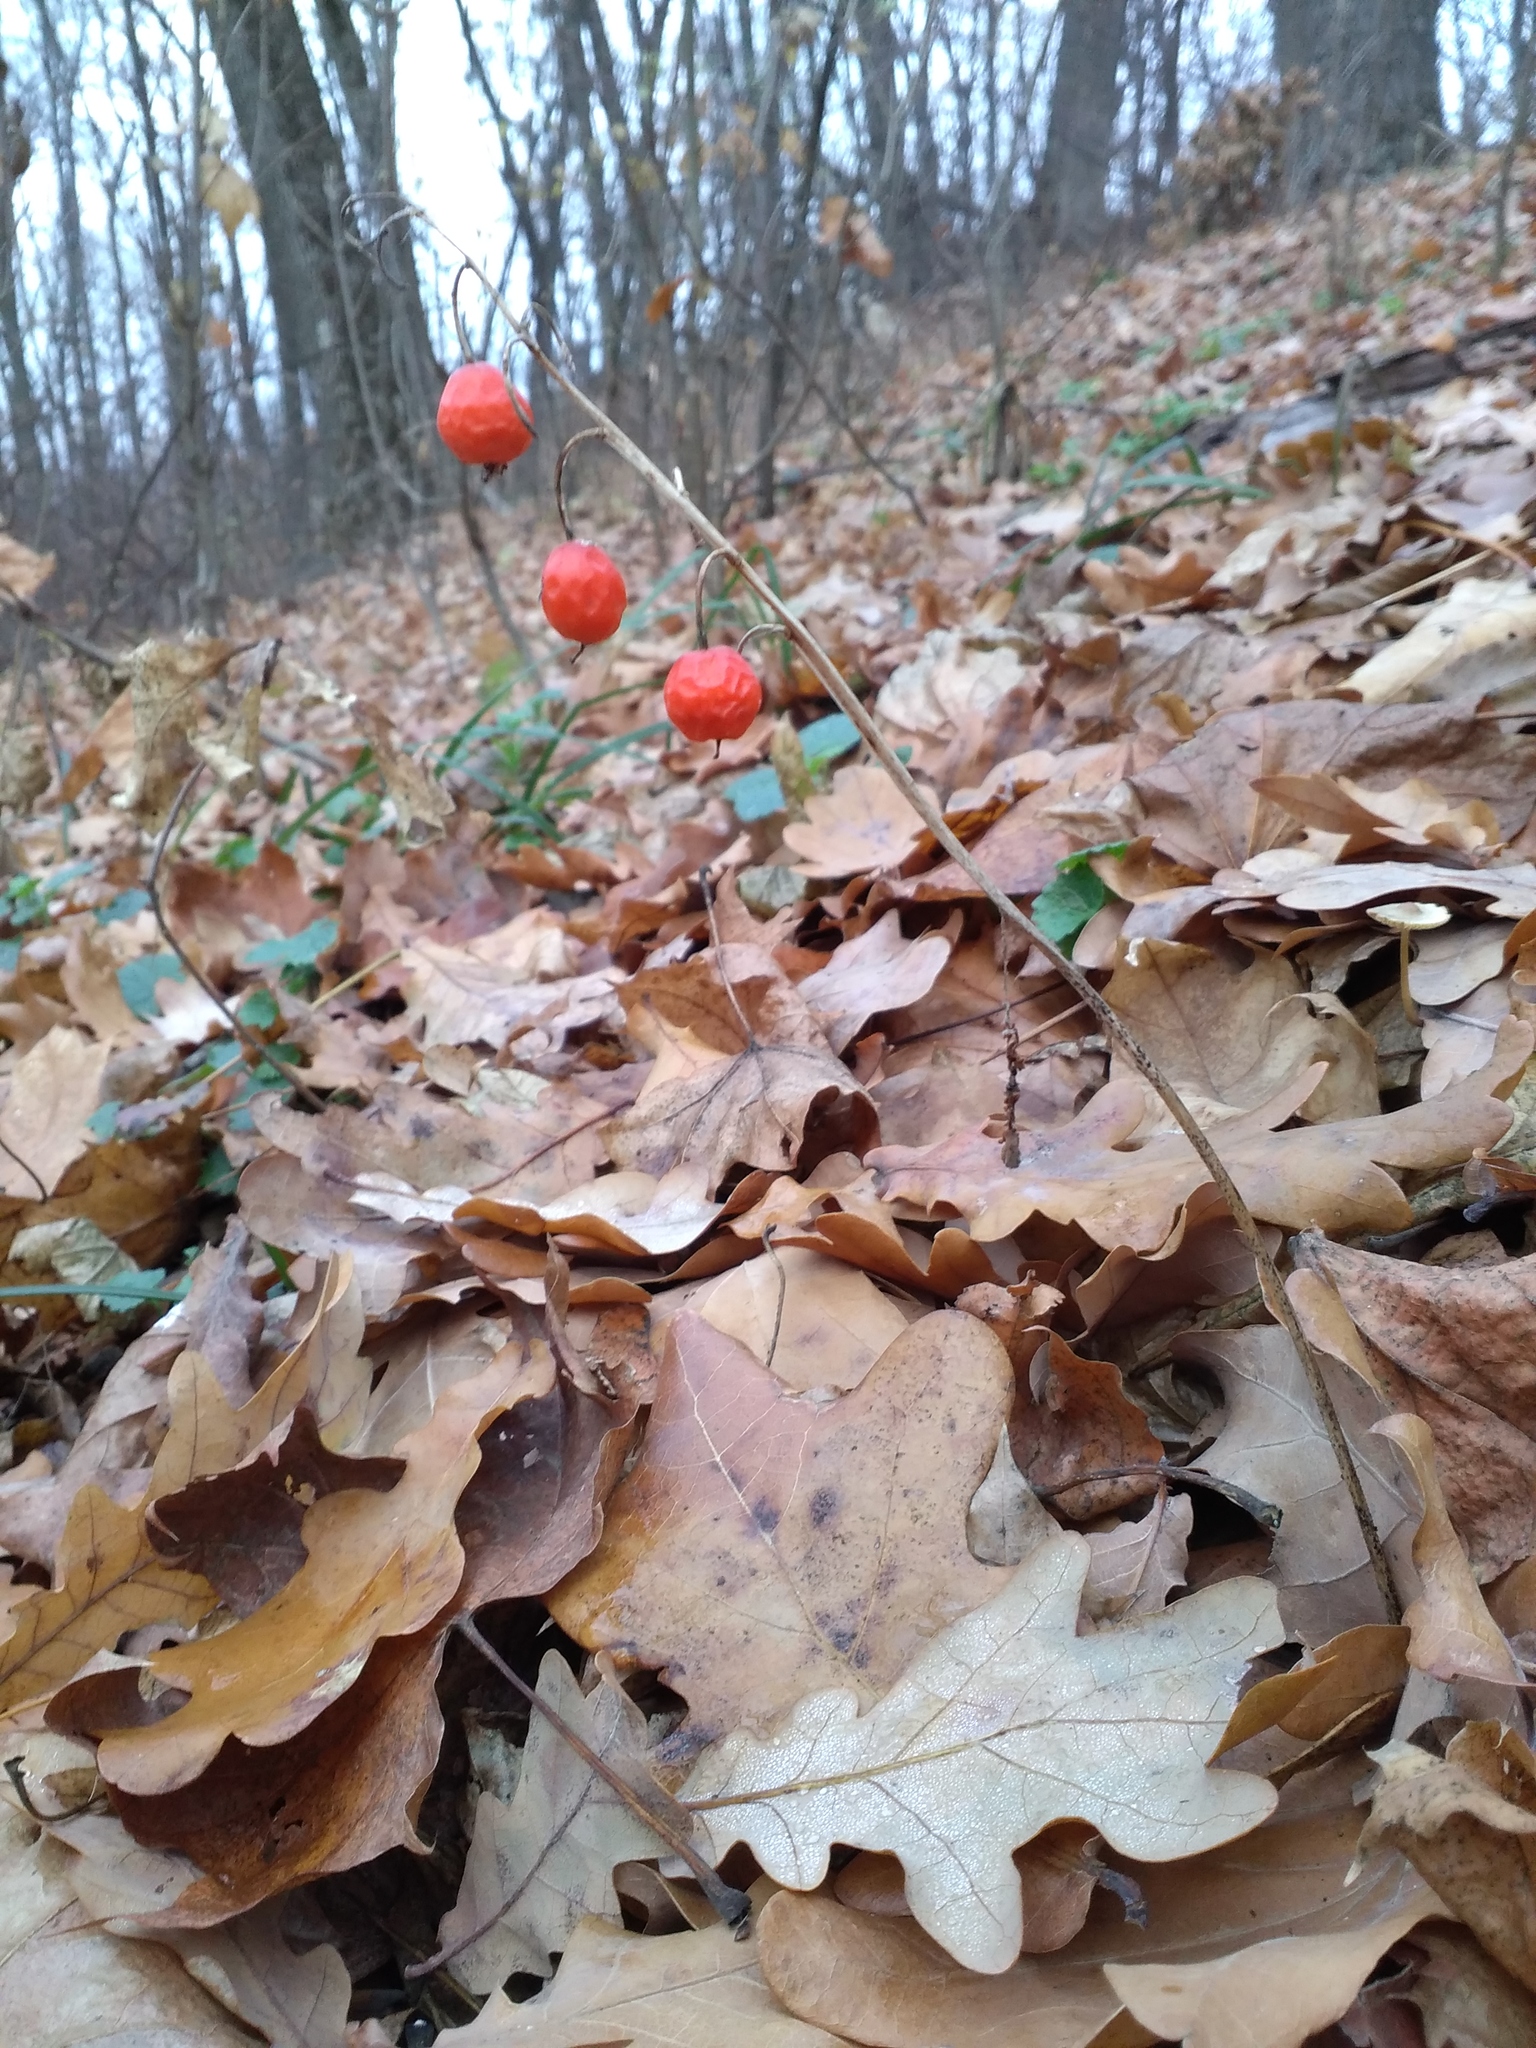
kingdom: Plantae
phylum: Tracheophyta
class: Liliopsida
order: Asparagales
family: Asparagaceae
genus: Convallaria
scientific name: Convallaria majalis
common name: Lily-of-the-valley
